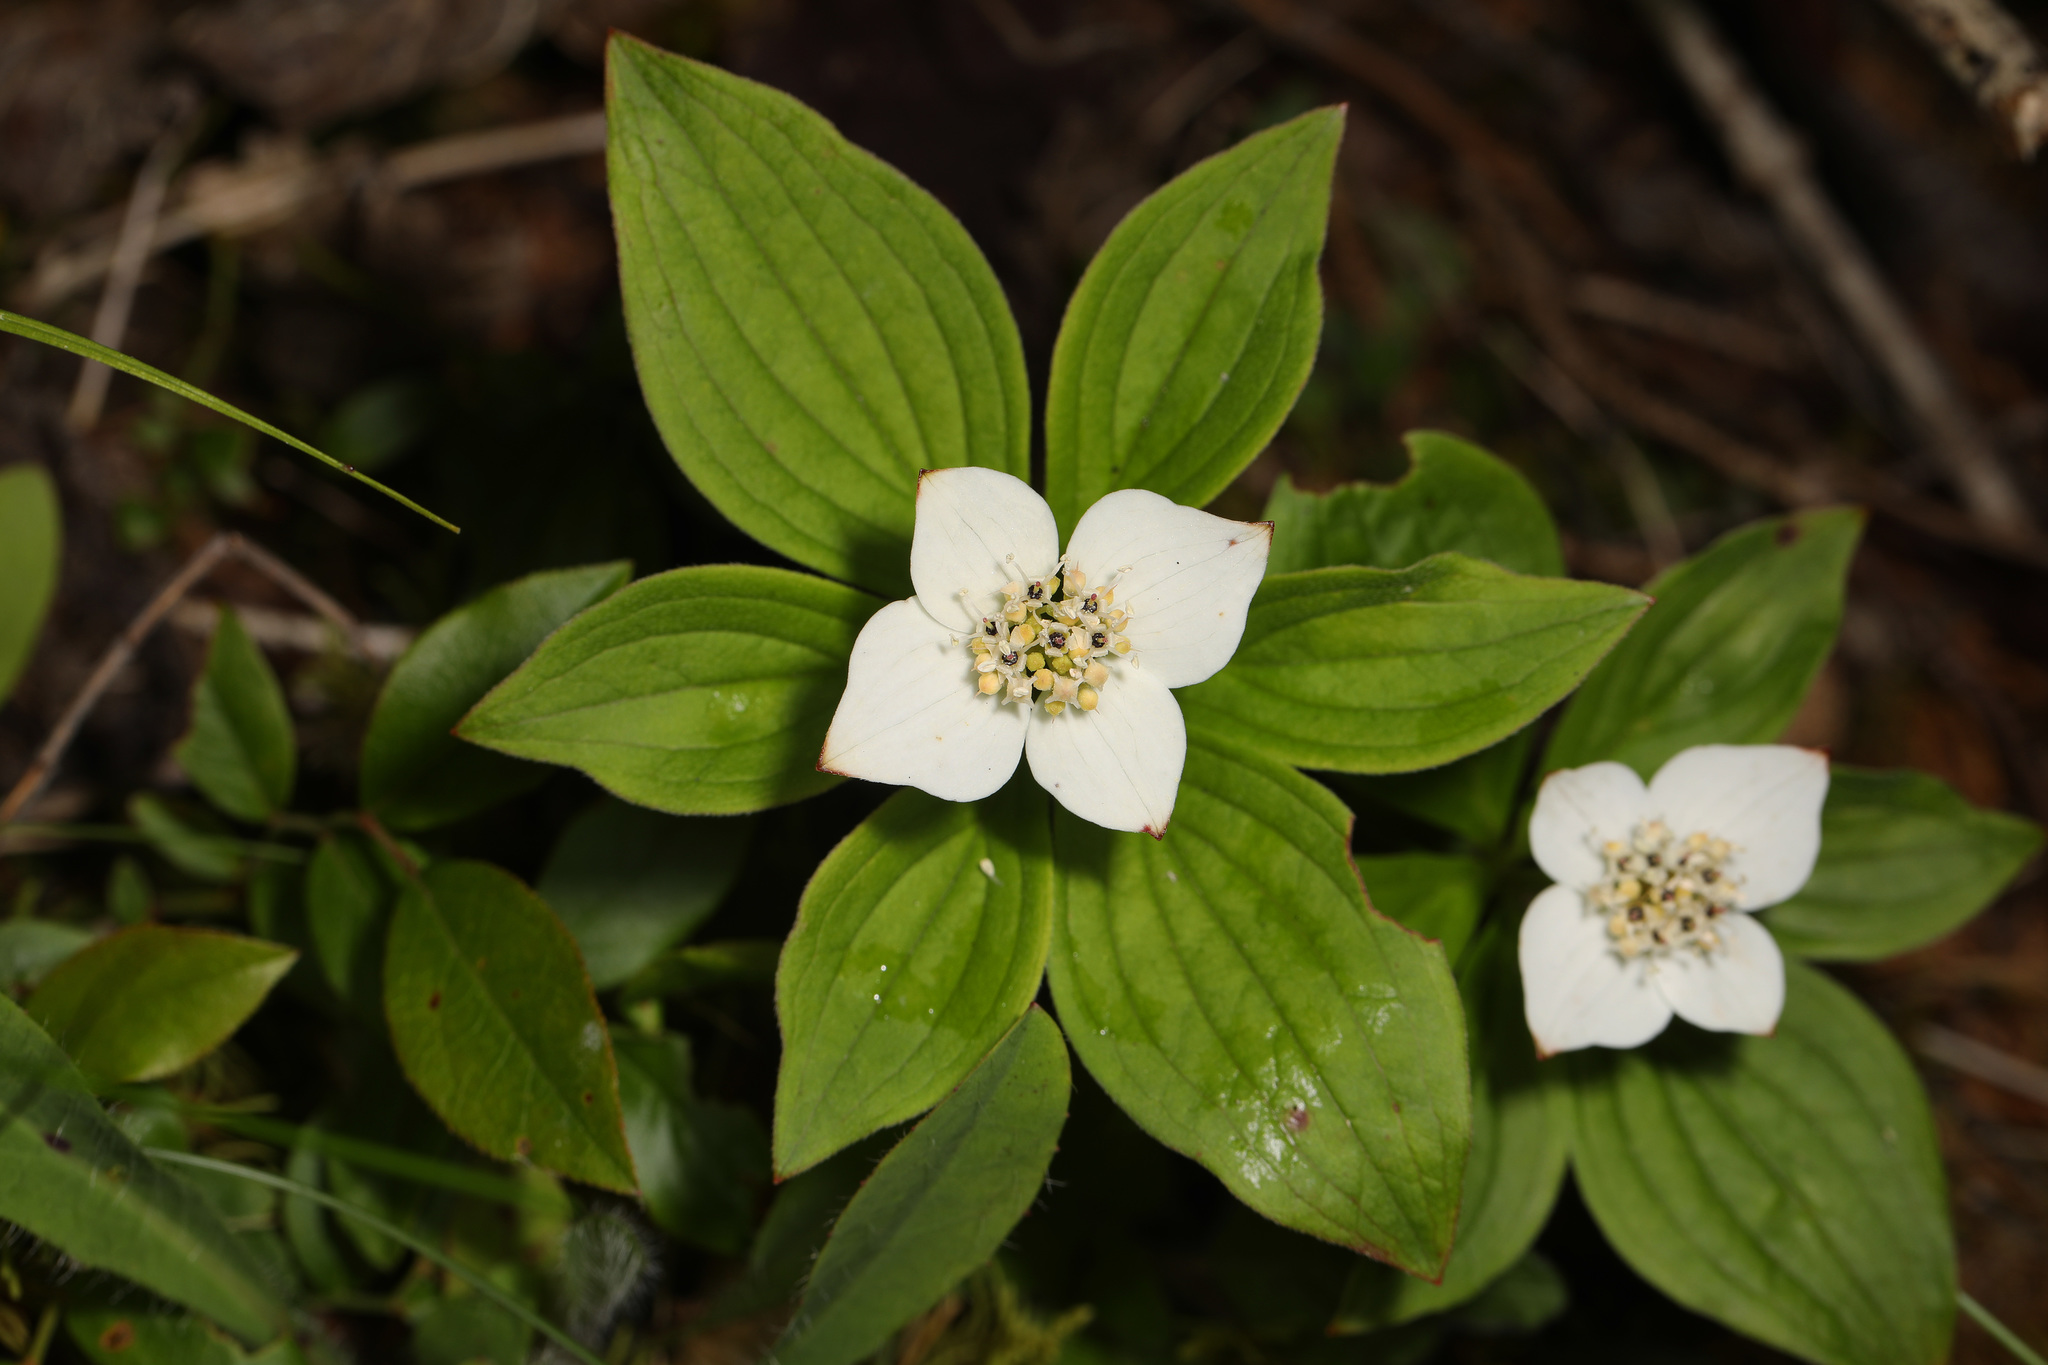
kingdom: Plantae
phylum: Tracheophyta
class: Magnoliopsida
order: Cornales
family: Cornaceae
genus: Cornus
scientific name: Cornus canadensis
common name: Creeping dogwood
